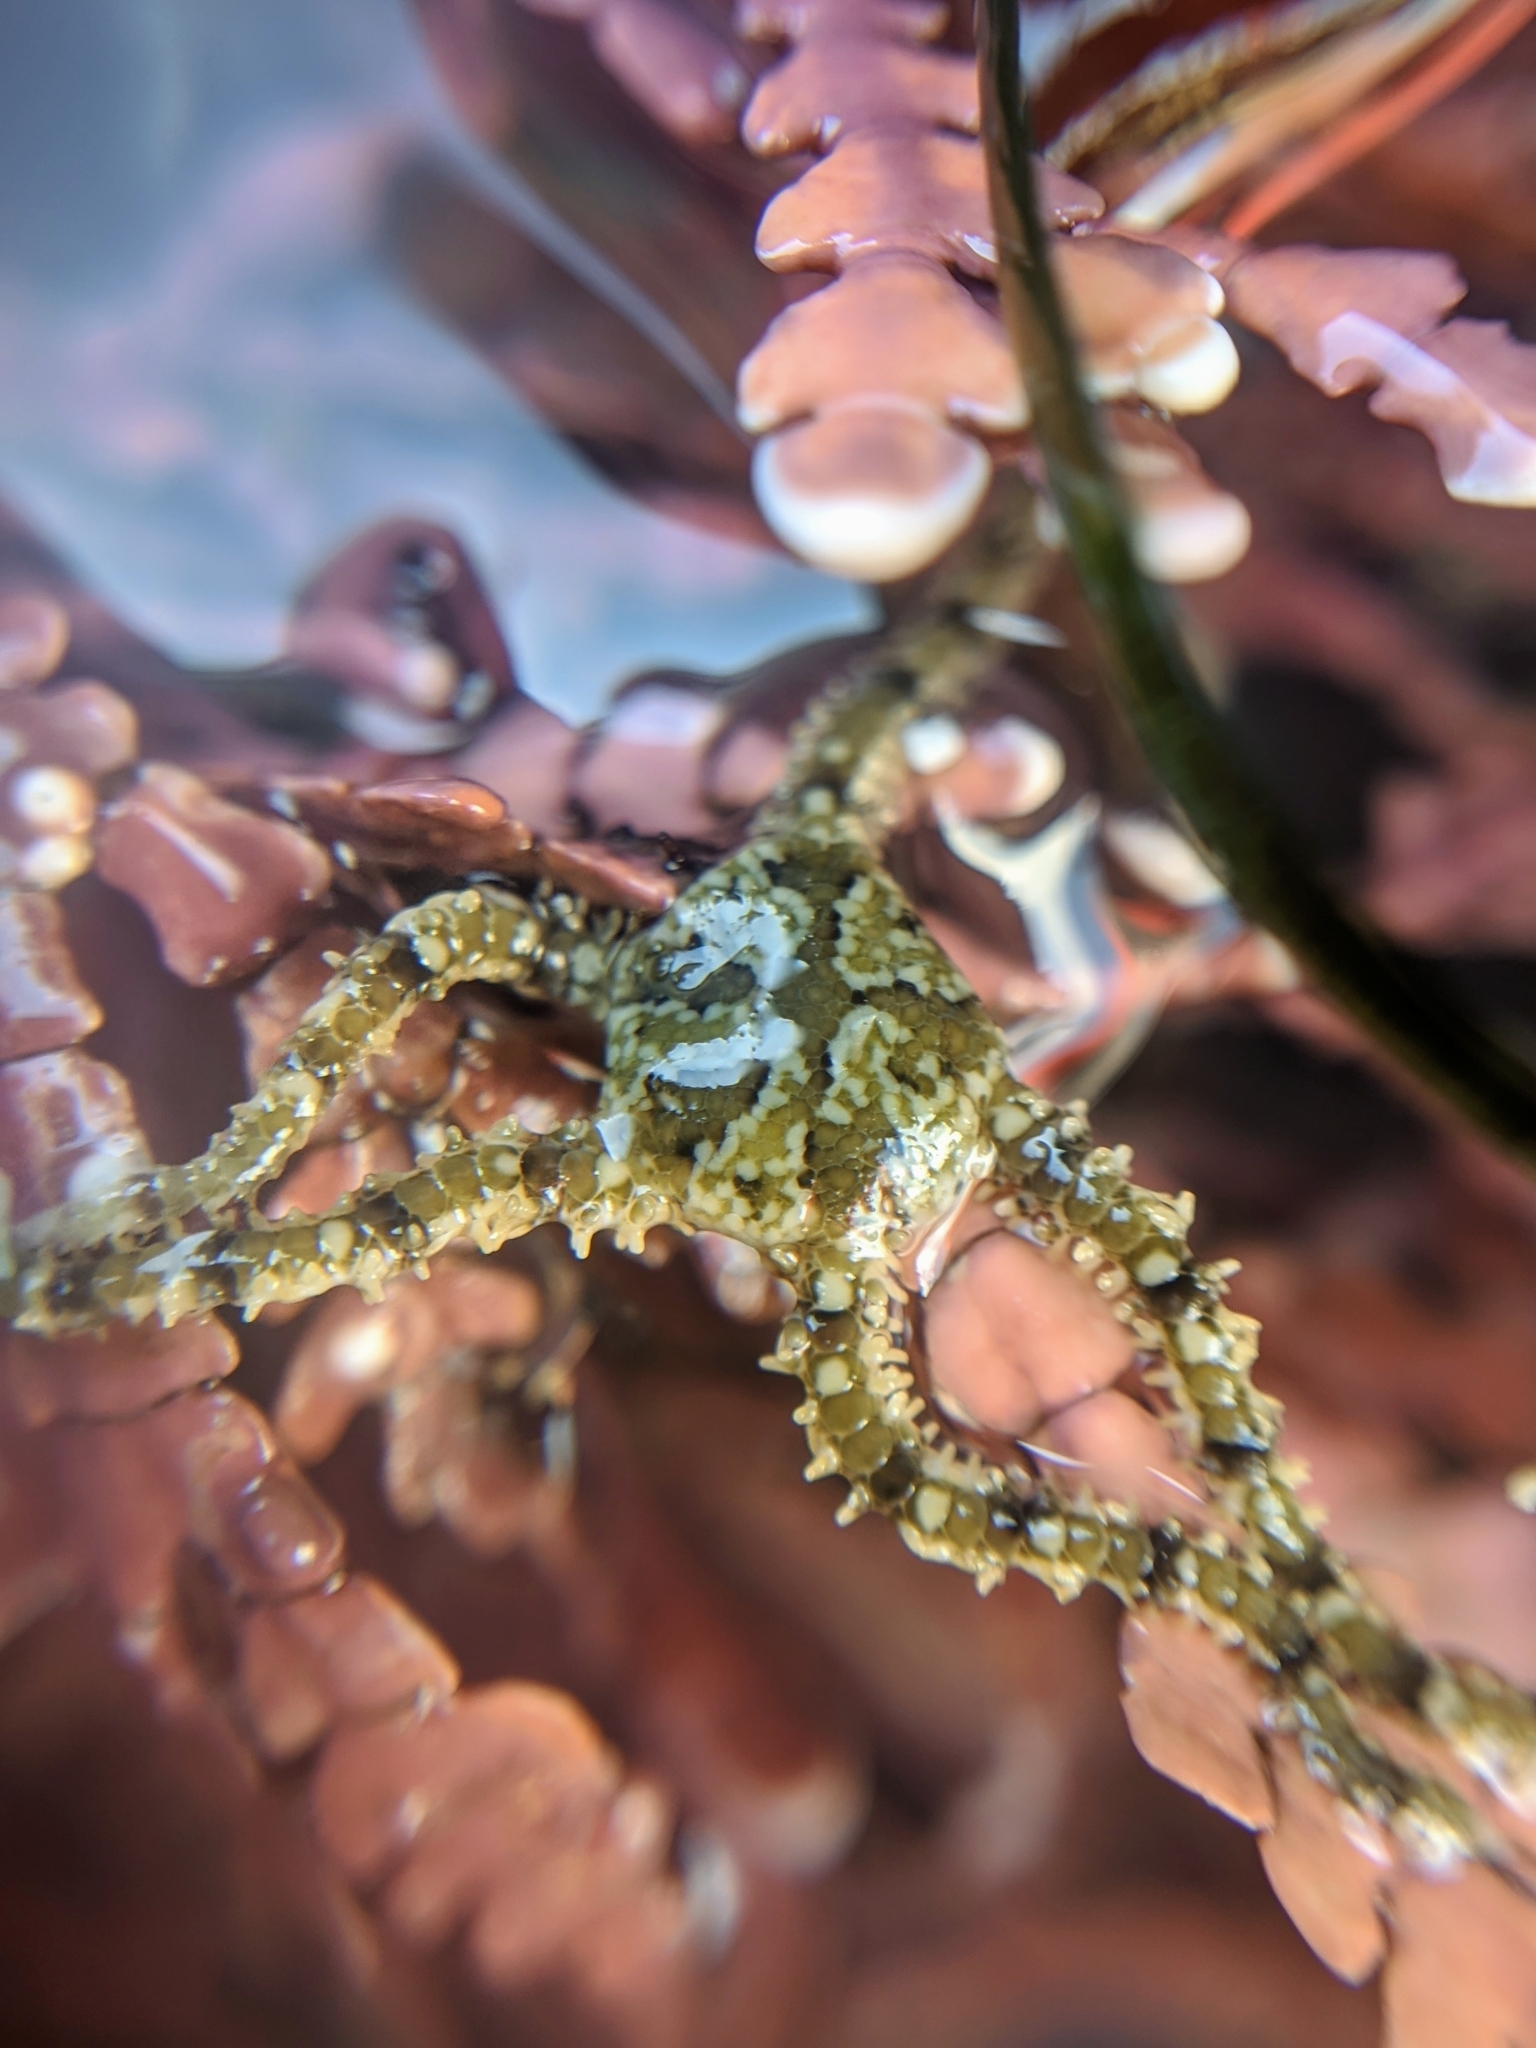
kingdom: Animalia
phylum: Echinodermata
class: Ophiuroidea
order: Amphilepidida
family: Ophionereididae
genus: Ophionereis
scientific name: Ophionereis diabloensis
